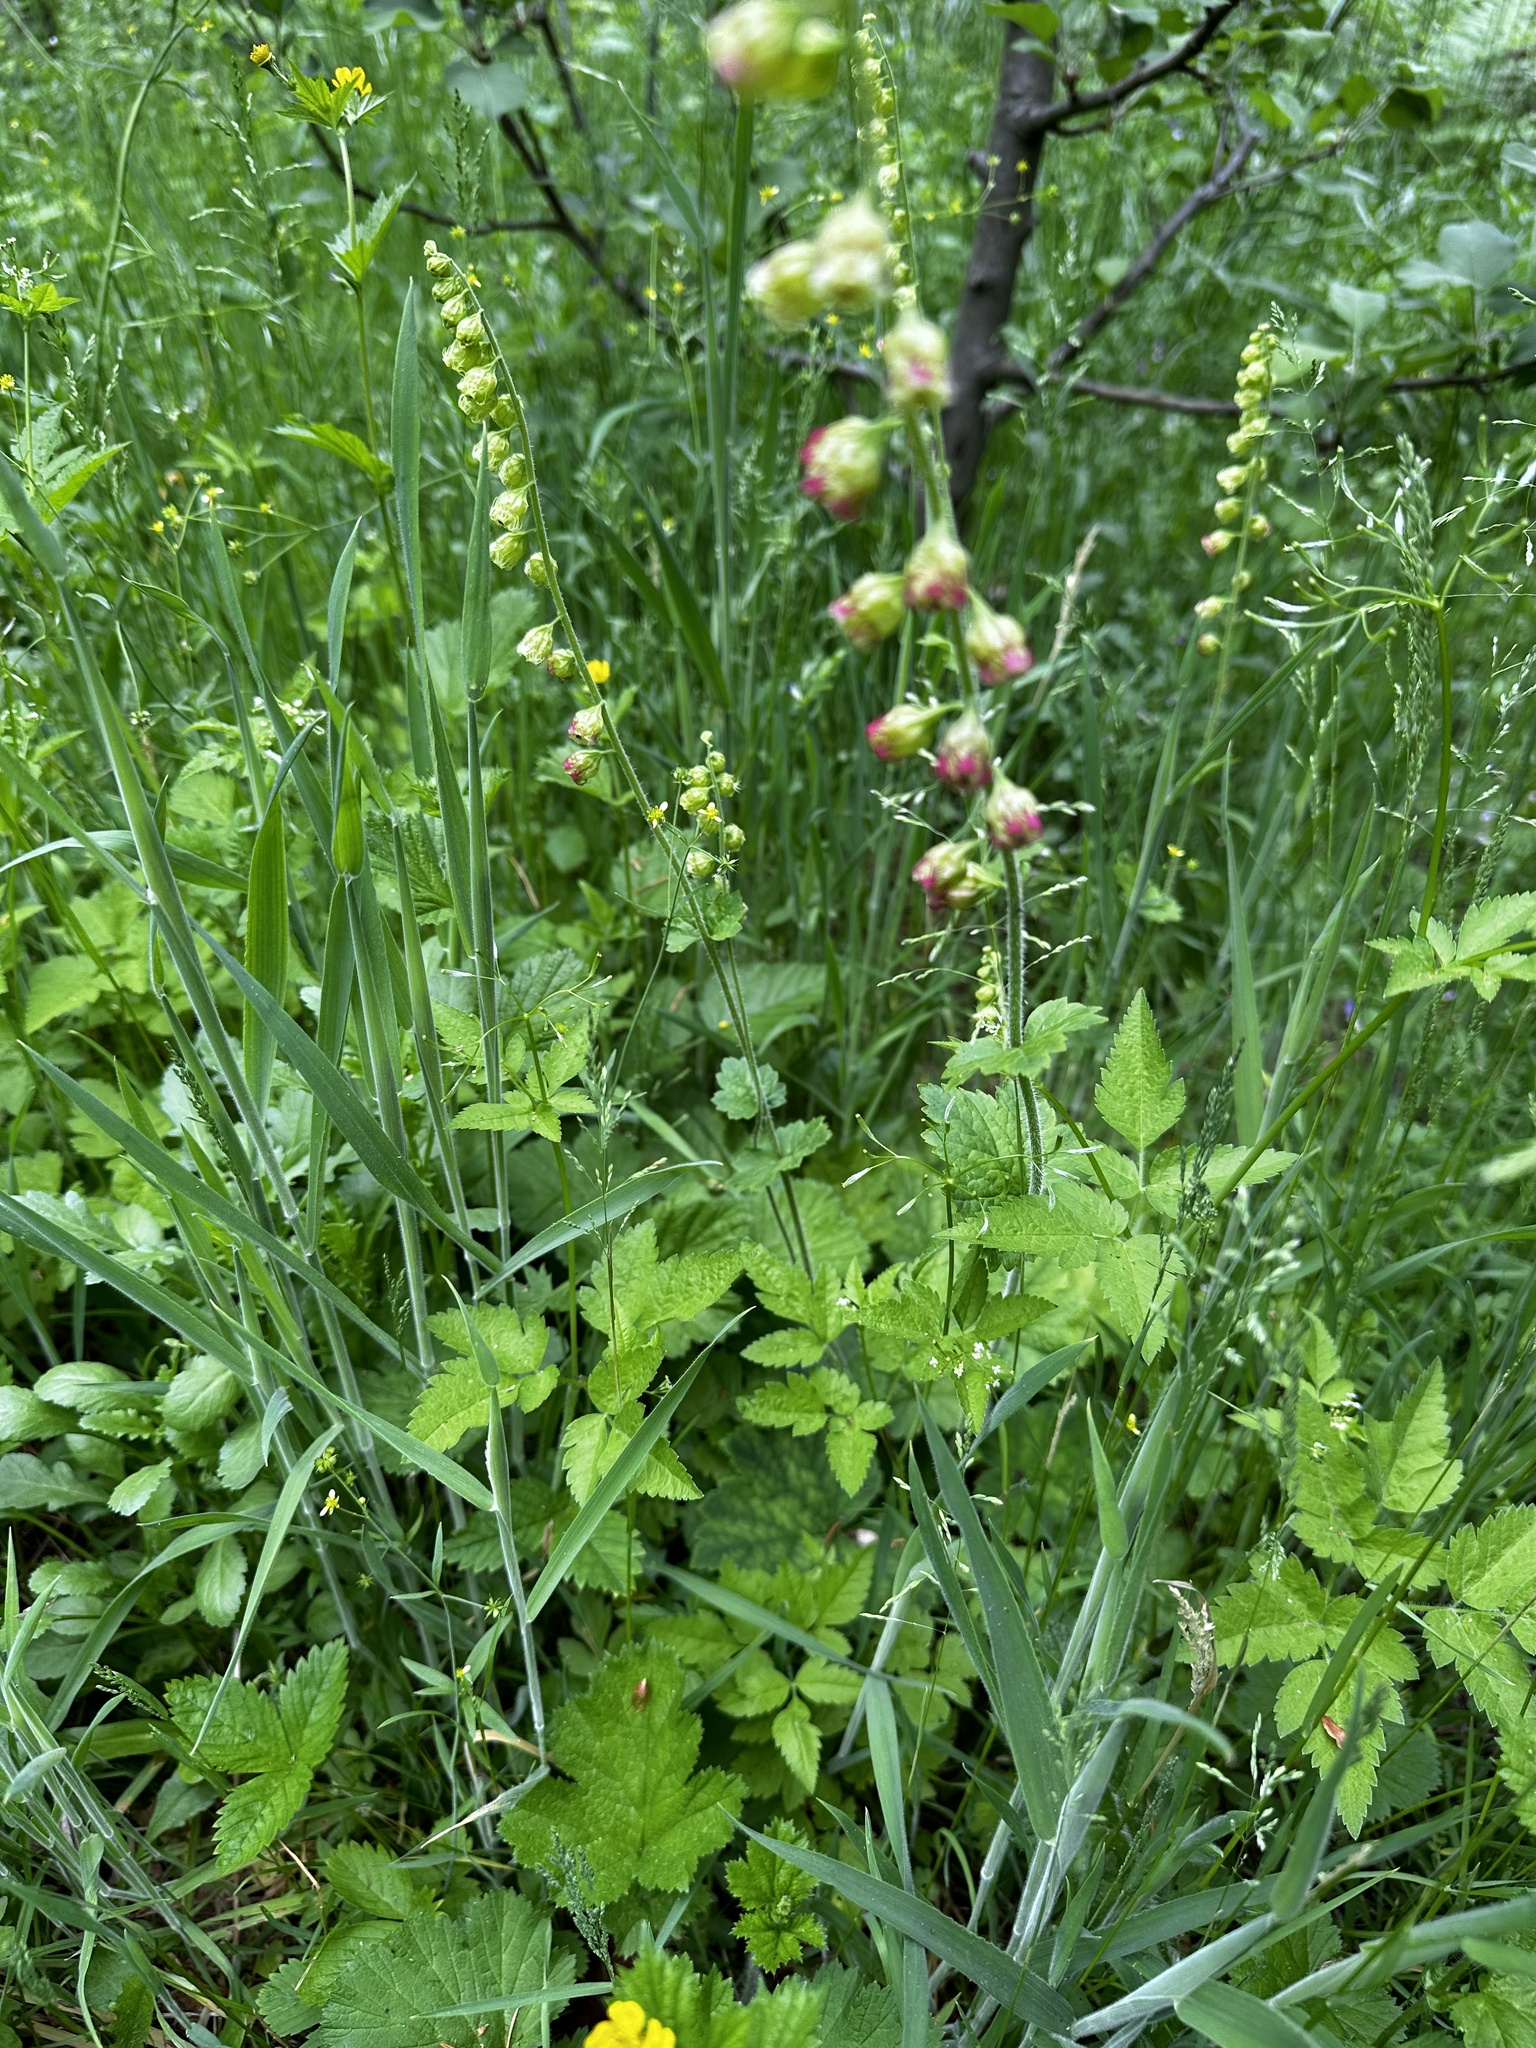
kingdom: Plantae
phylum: Tracheophyta
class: Magnoliopsida
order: Saxifragales
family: Saxifragaceae
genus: Tellima
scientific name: Tellima grandiflora
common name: Fringecups
